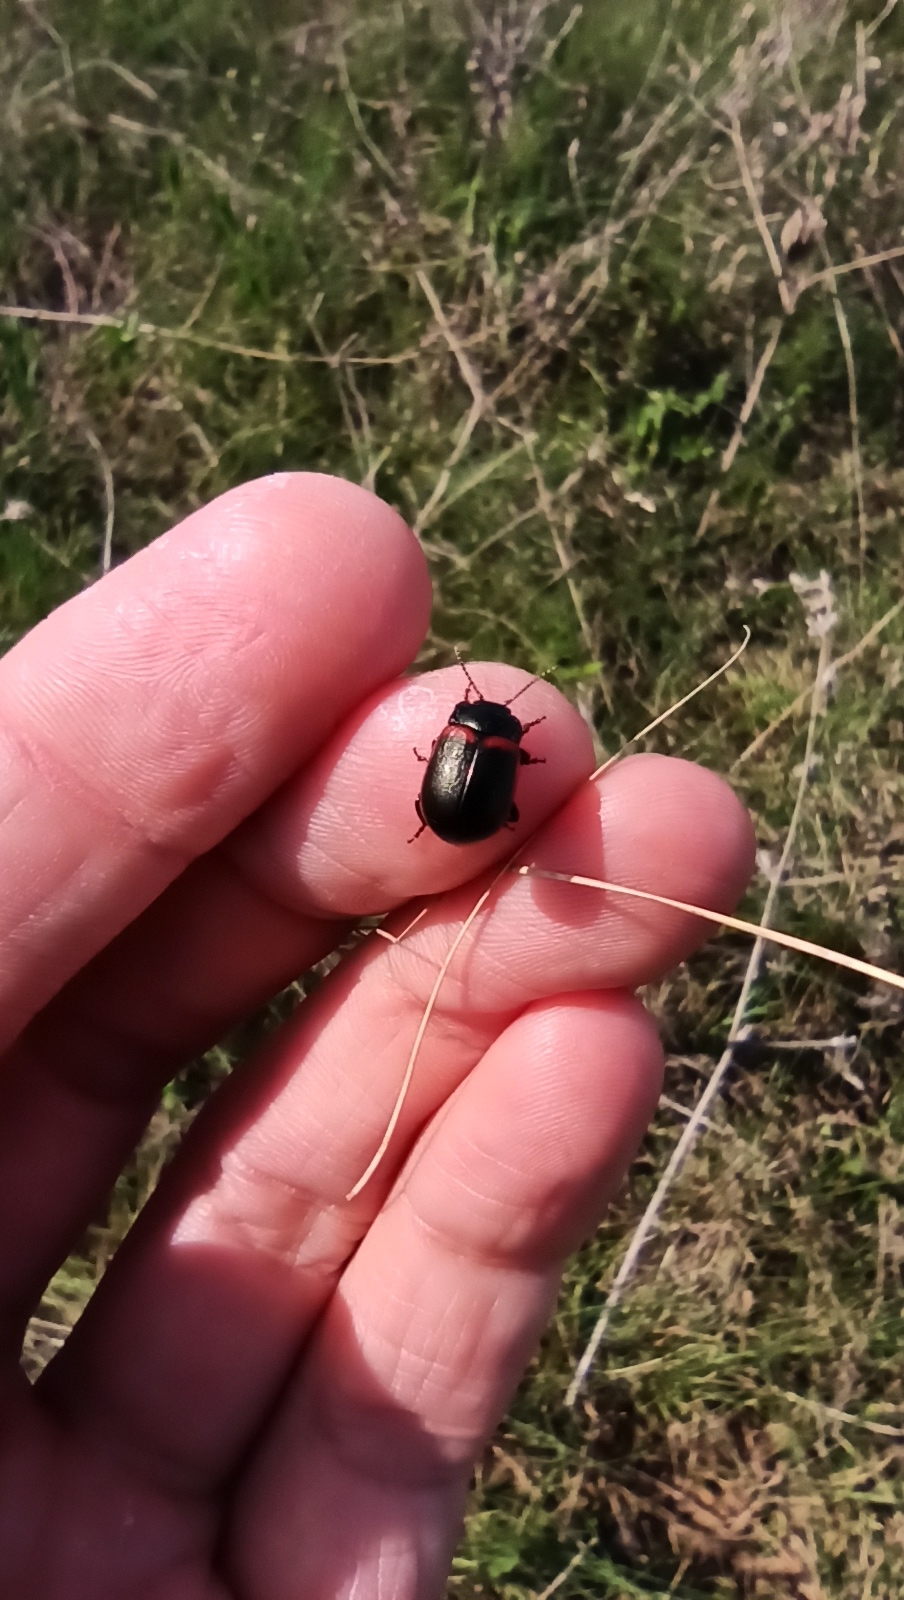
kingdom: Animalia
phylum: Arthropoda
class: Insecta
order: Coleoptera
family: Chrysomelidae
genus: Chrysolina
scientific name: Chrysolina limbata
